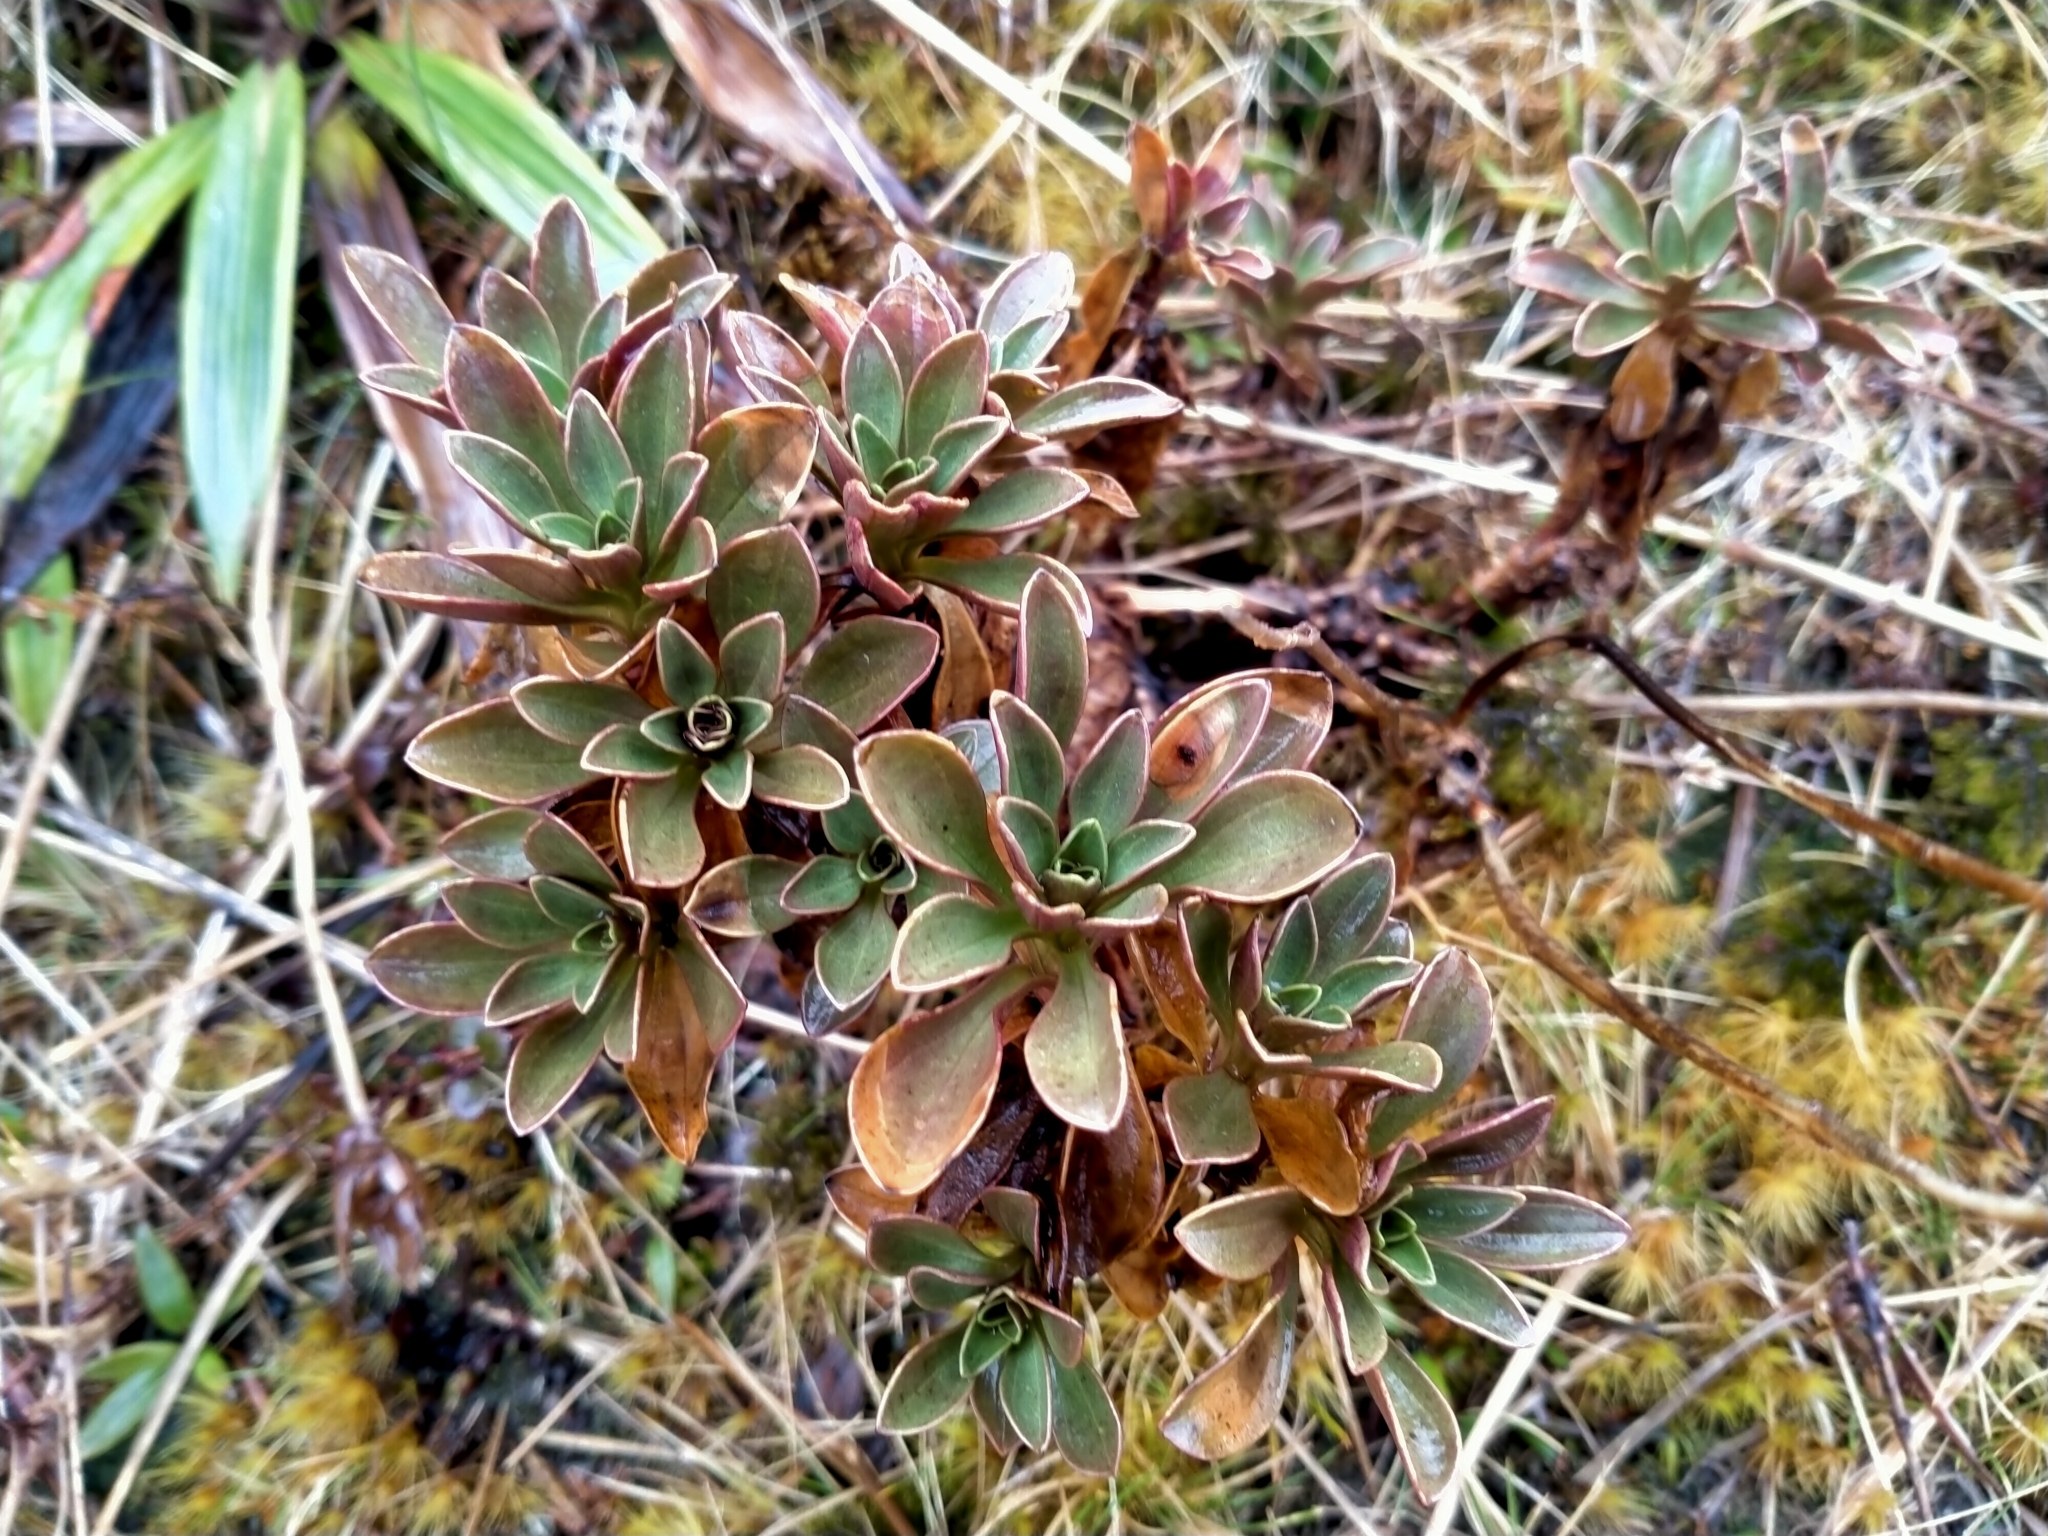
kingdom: Plantae
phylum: Tracheophyta
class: Magnoliopsida
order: Gentianales
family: Gentianaceae
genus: Gentianella
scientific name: Gentianella impressinervia
